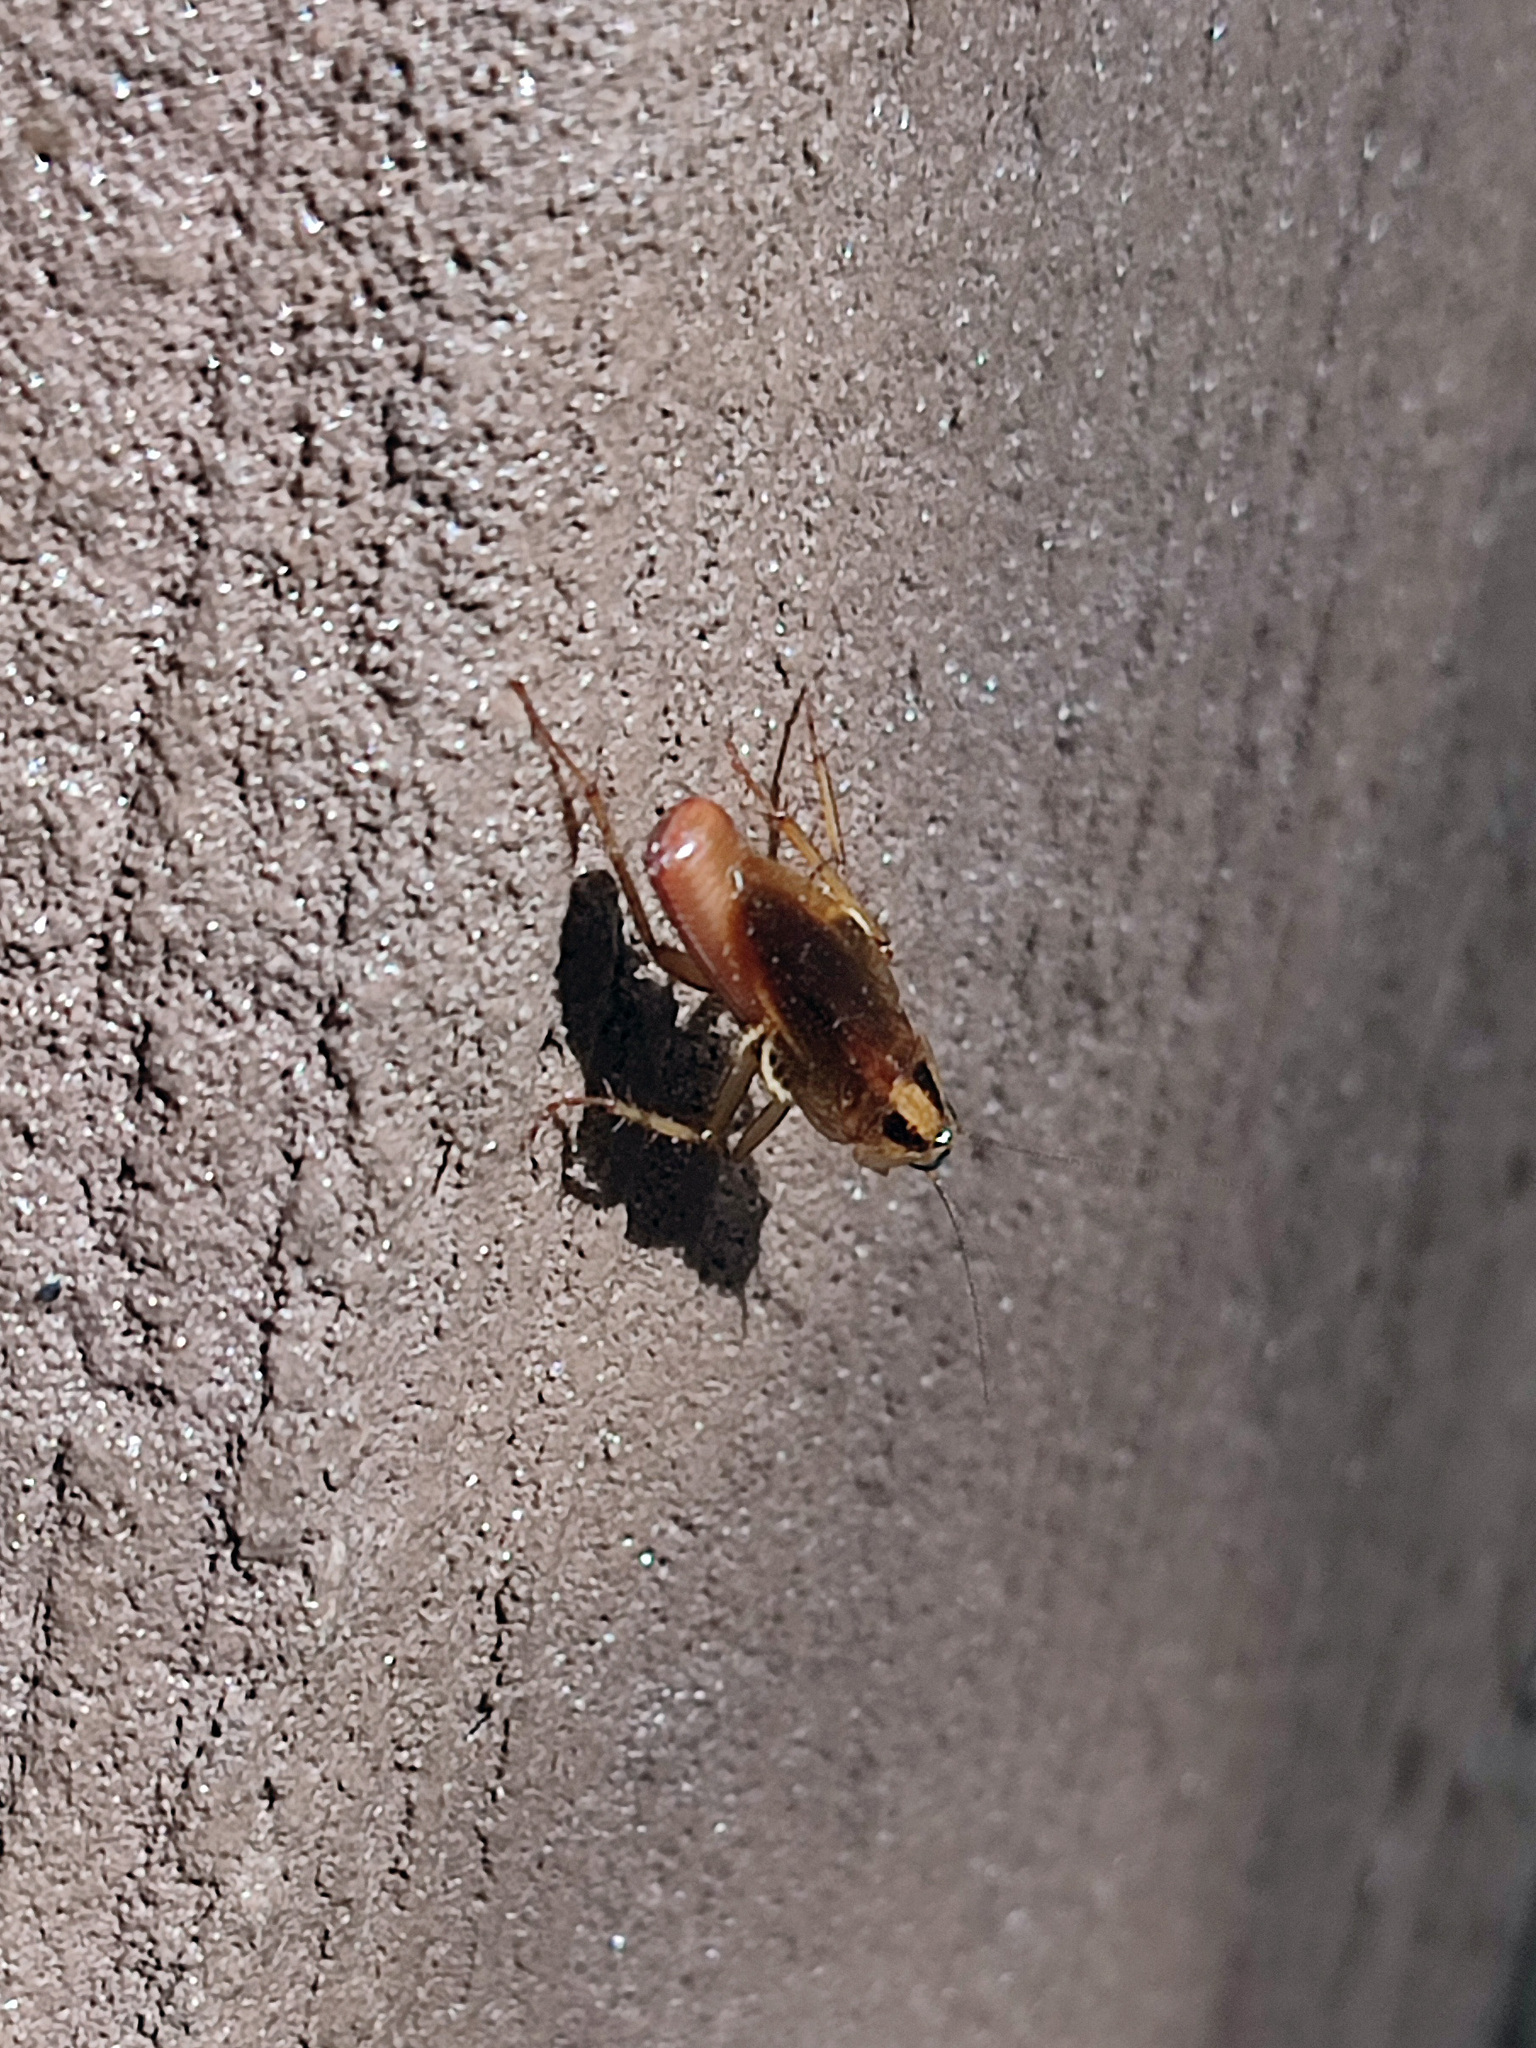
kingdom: Animalia
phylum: Arthropoda
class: Insecta
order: Blattodea
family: Ectobiidae
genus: Blattella
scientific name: Blattella germanica
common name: German cockroach
